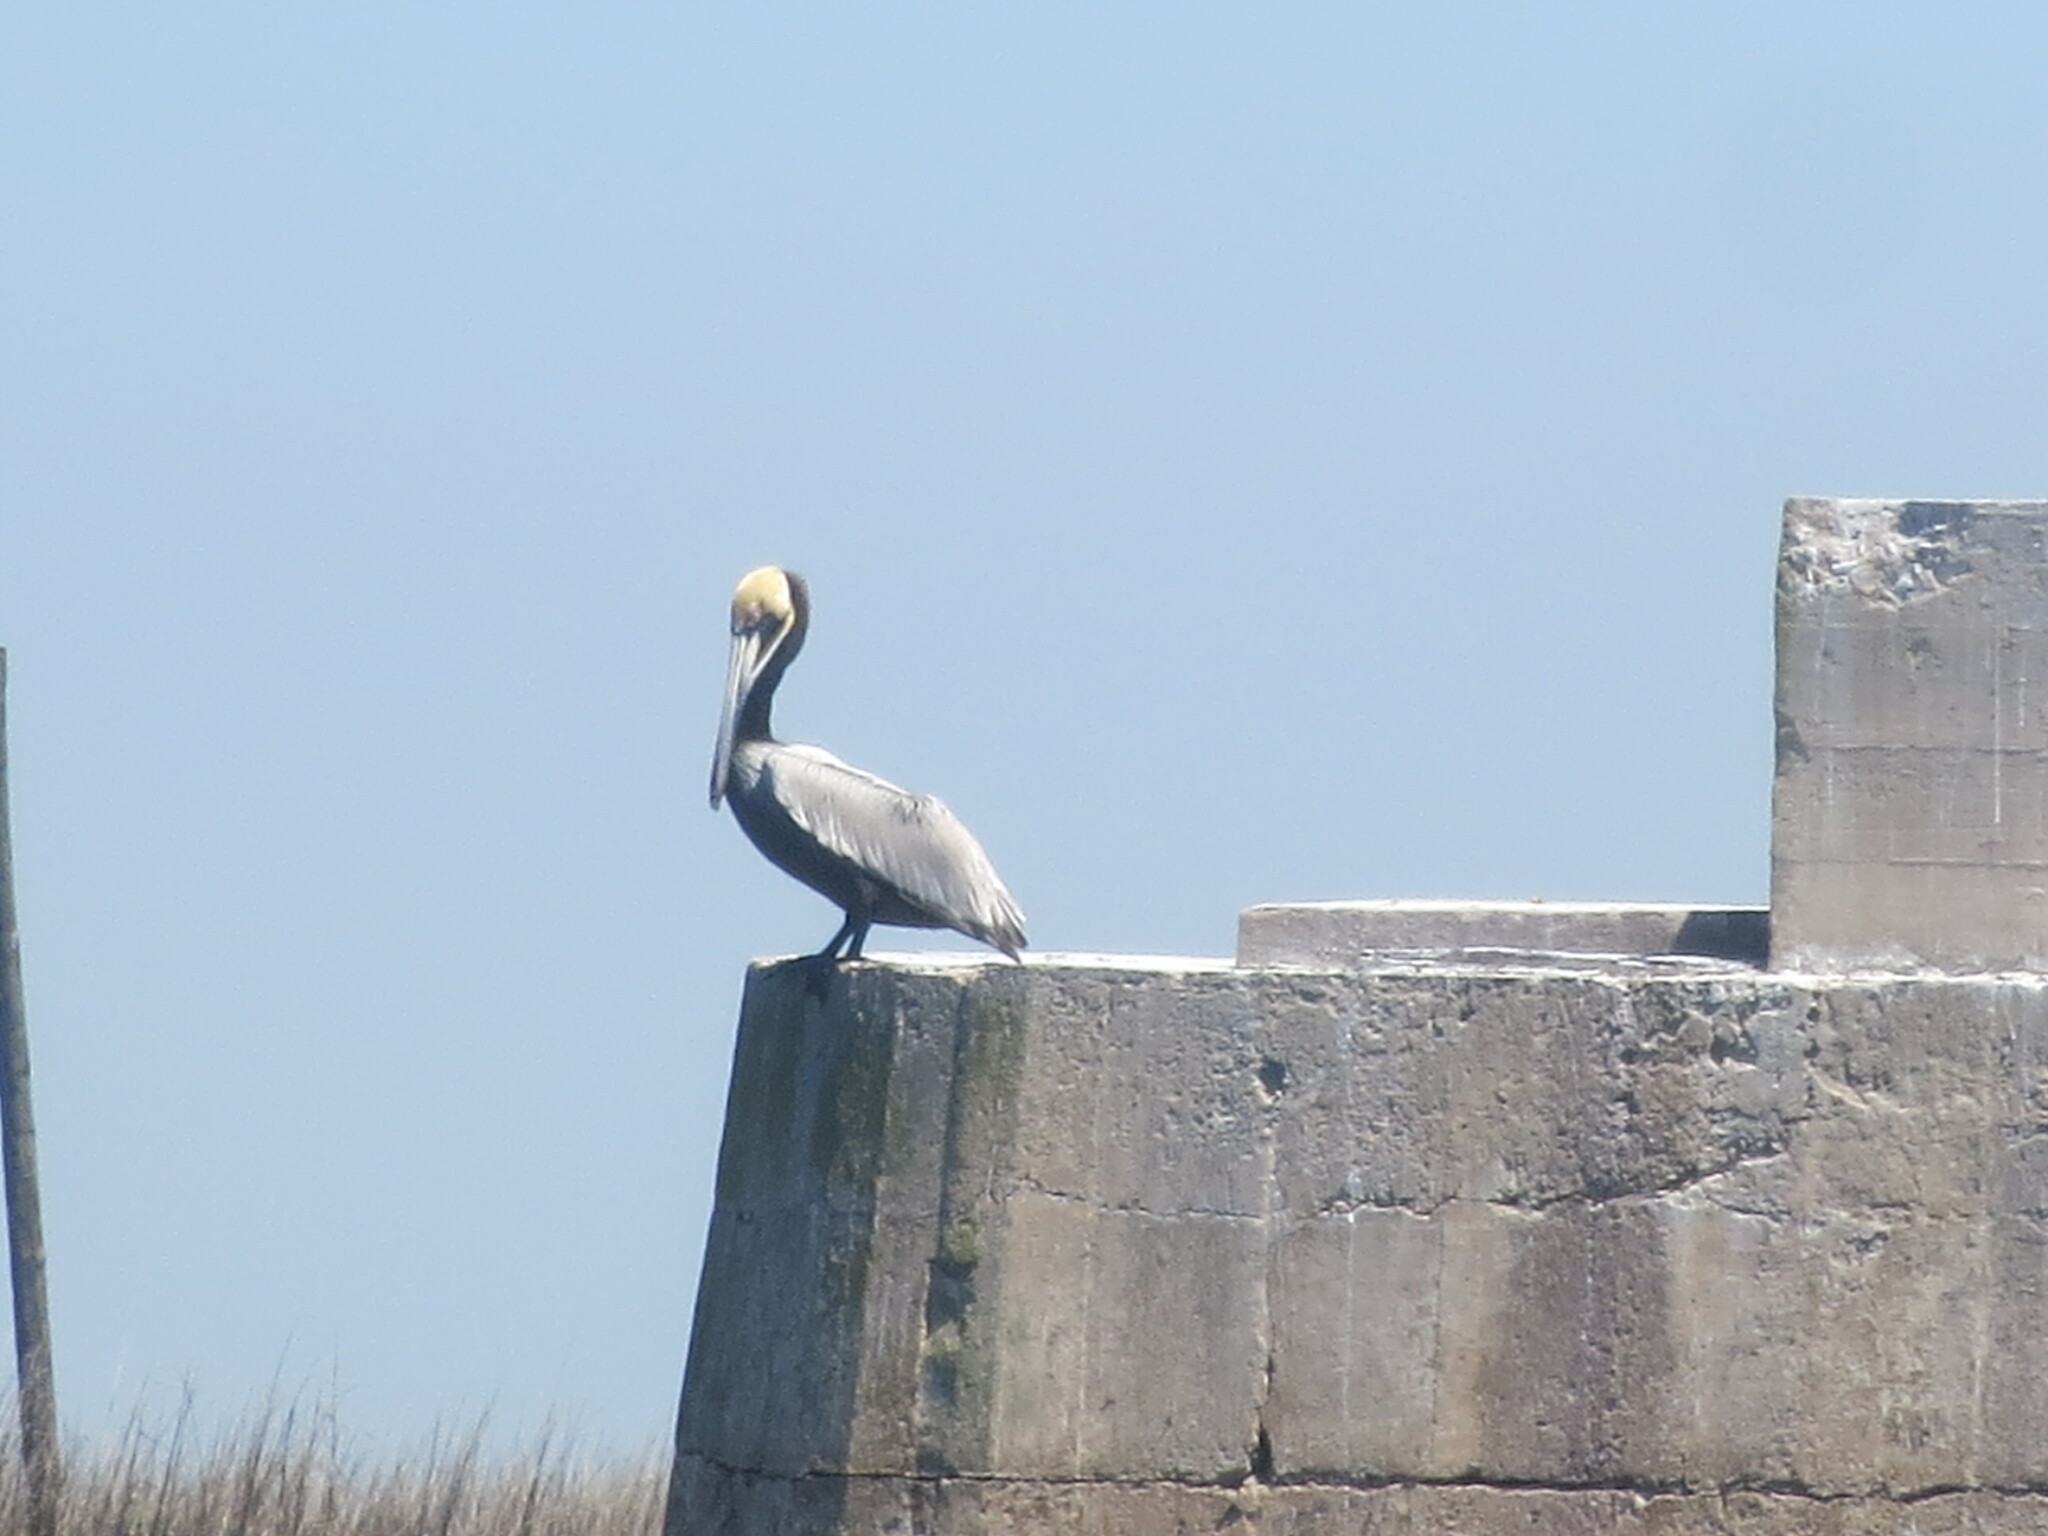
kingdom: Animalia
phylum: Chordata
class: Aves
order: Pelecaniformes
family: Pelecanidae
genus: Pelecanus
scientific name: Pelecanus occidentalis
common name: Brown pelican
